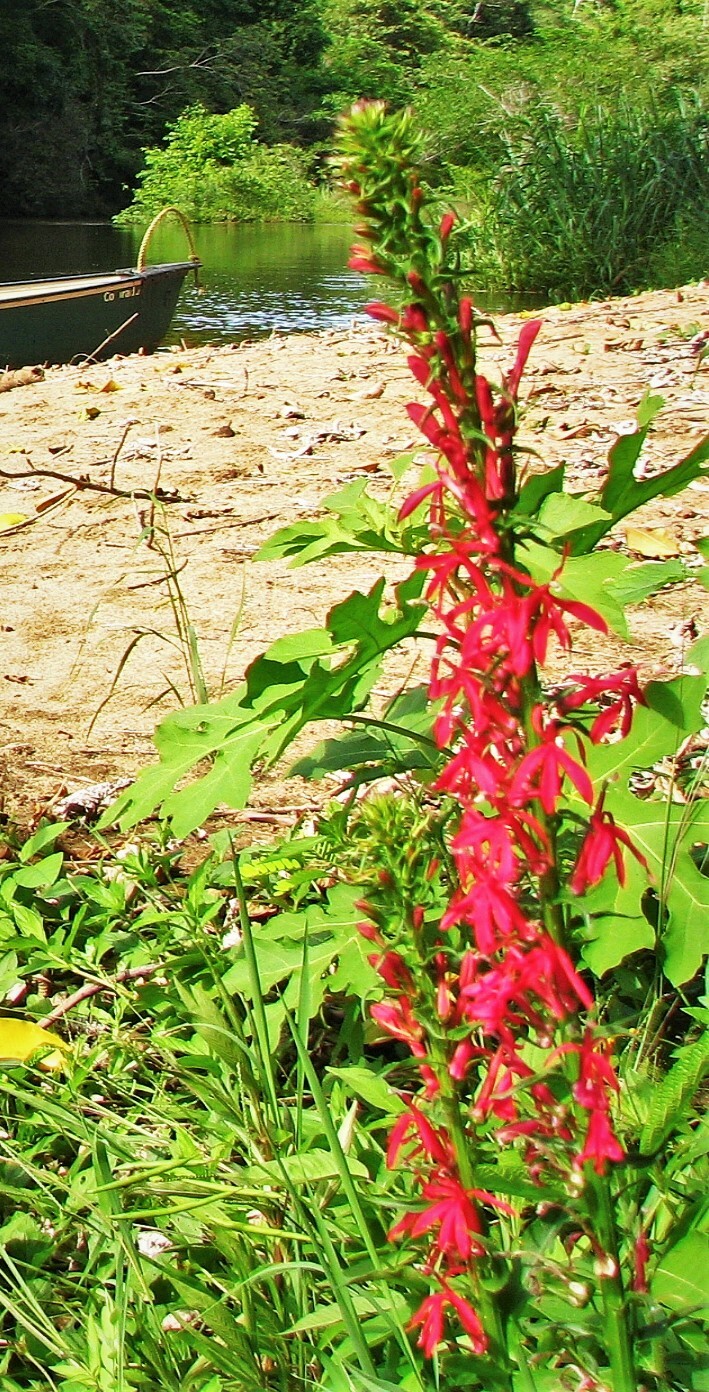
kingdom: Plantae
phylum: Tracheophyta
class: Magnoliopsida
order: Asterales
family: Campanulaceae
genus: Lobelia
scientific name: Lobelia cardinalis
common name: Cardinal flower
